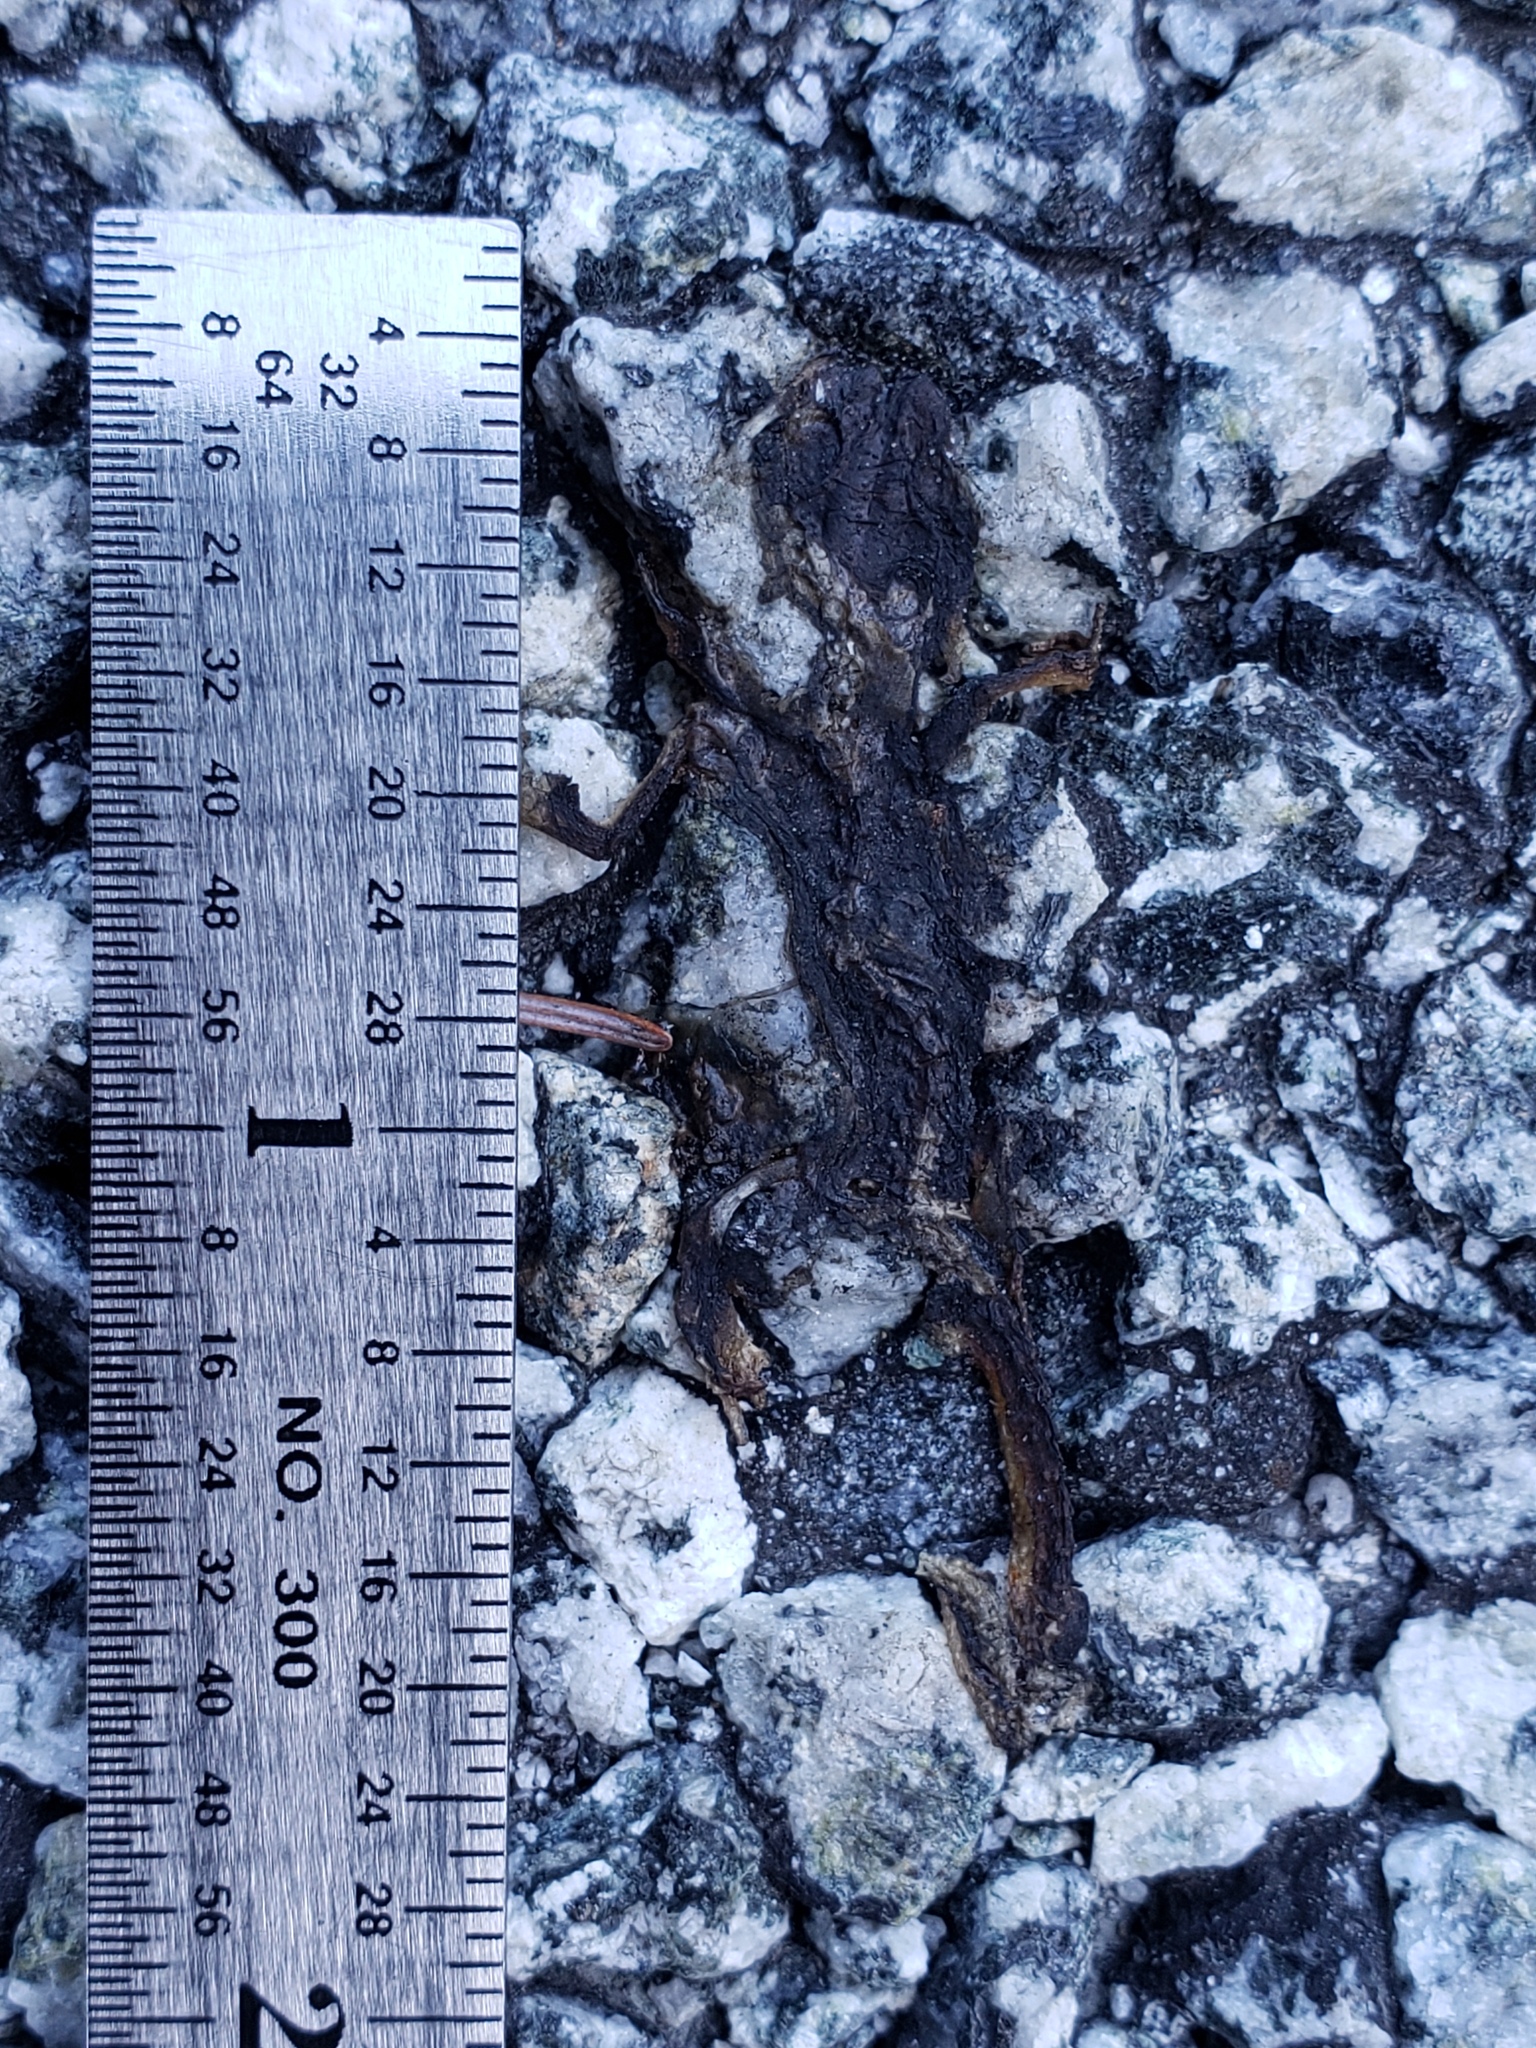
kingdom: Animalia
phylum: Chordata
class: Amphibia
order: Caudata
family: Salamandridae
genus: Taricha
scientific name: Taricha
